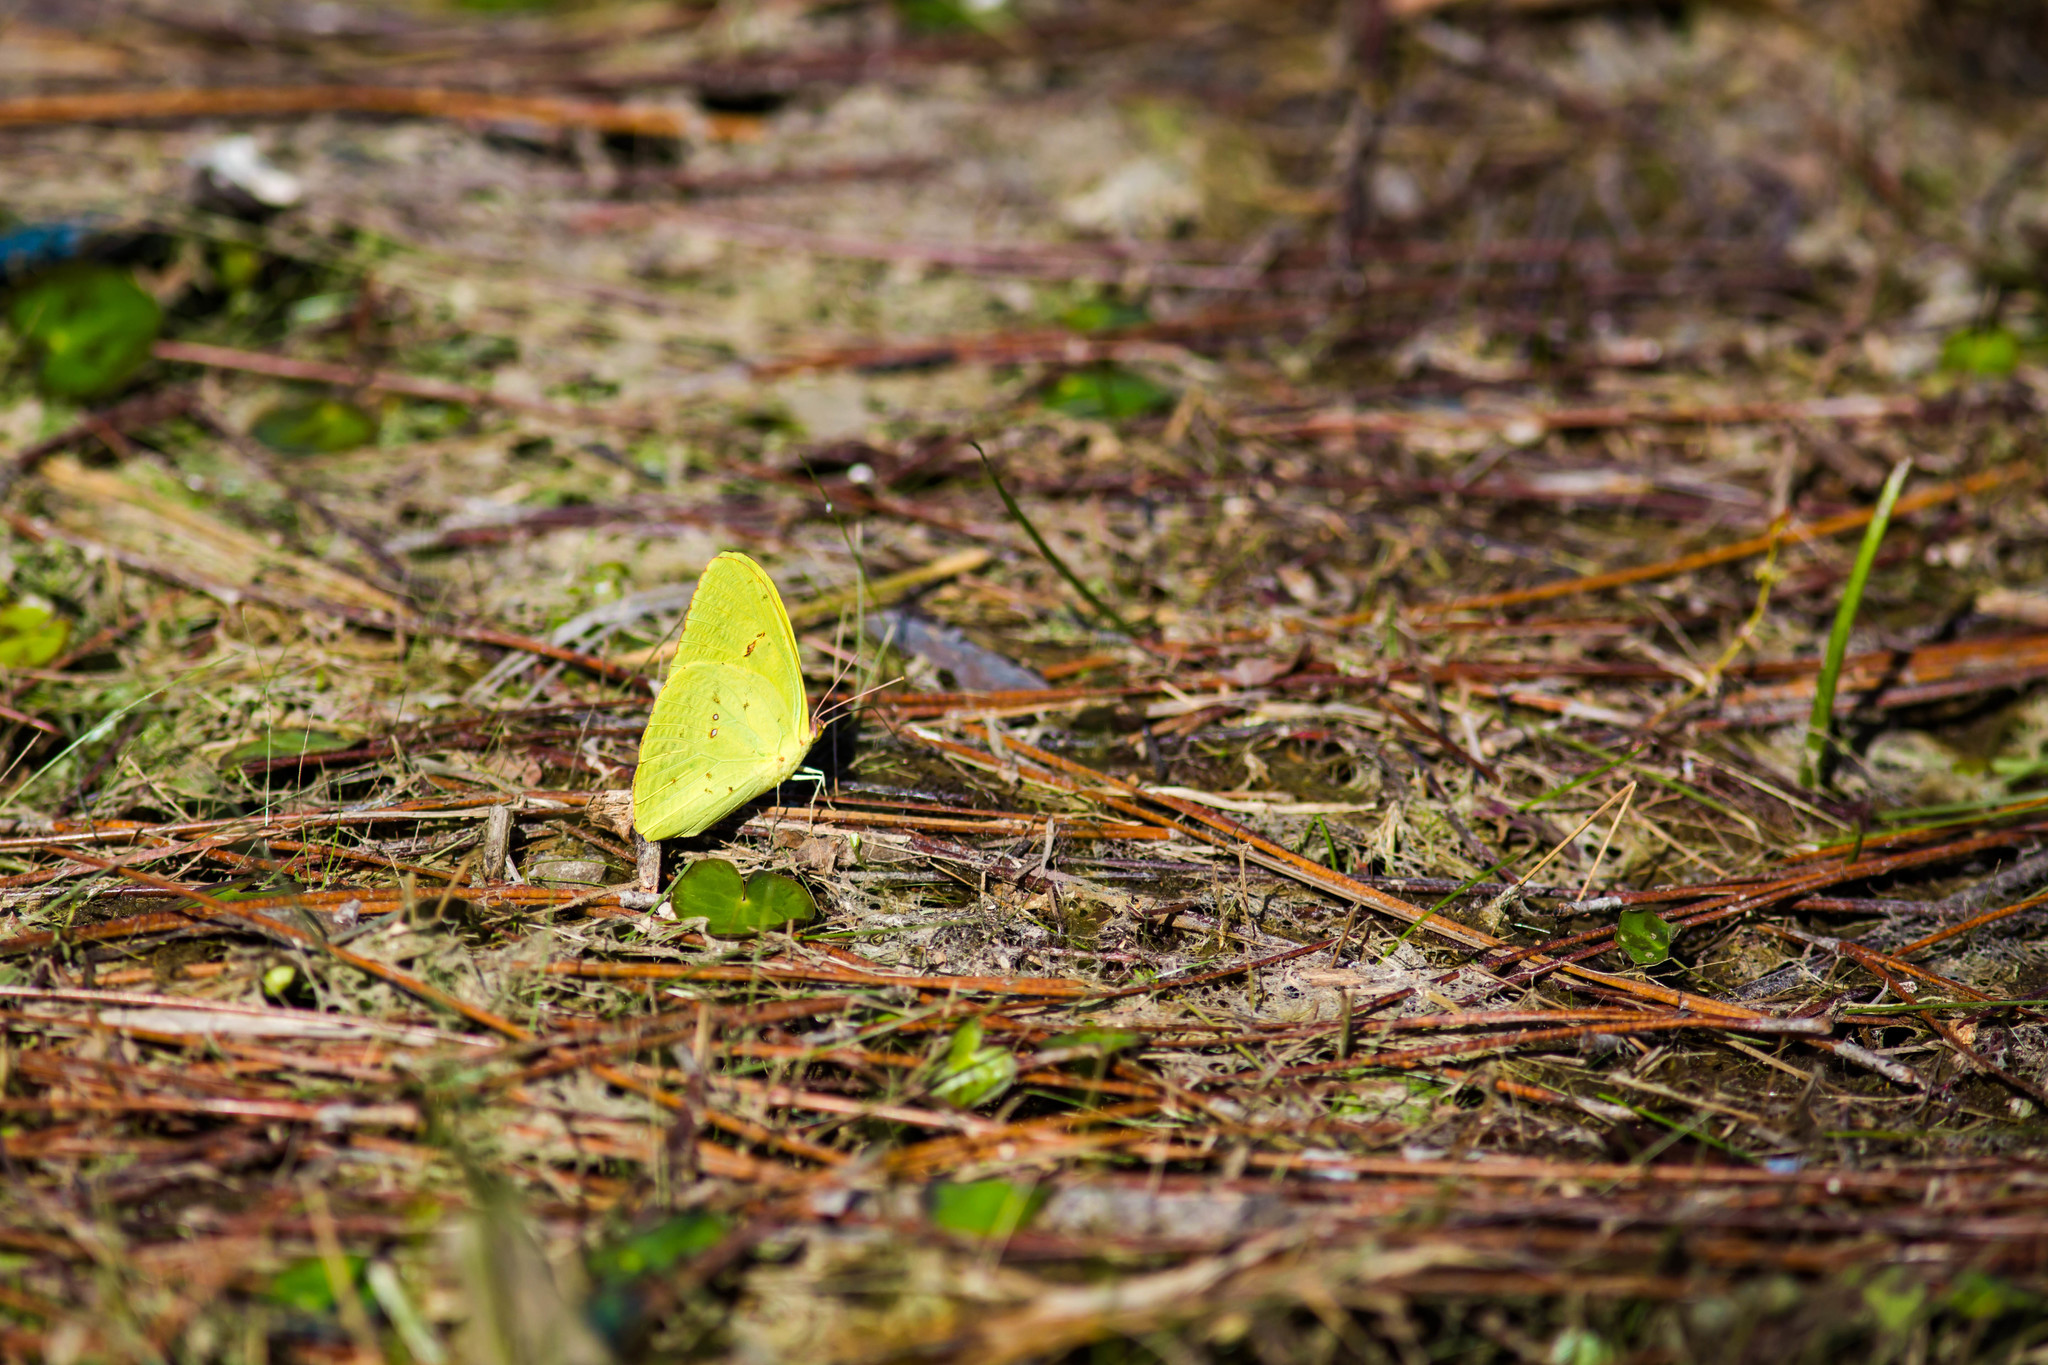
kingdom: Animalia
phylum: Arthropoda
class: Insecta
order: Lepidoptera
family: Pieridae
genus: Phoebis
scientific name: Phoebis sennae
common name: Cloudless sulphur
